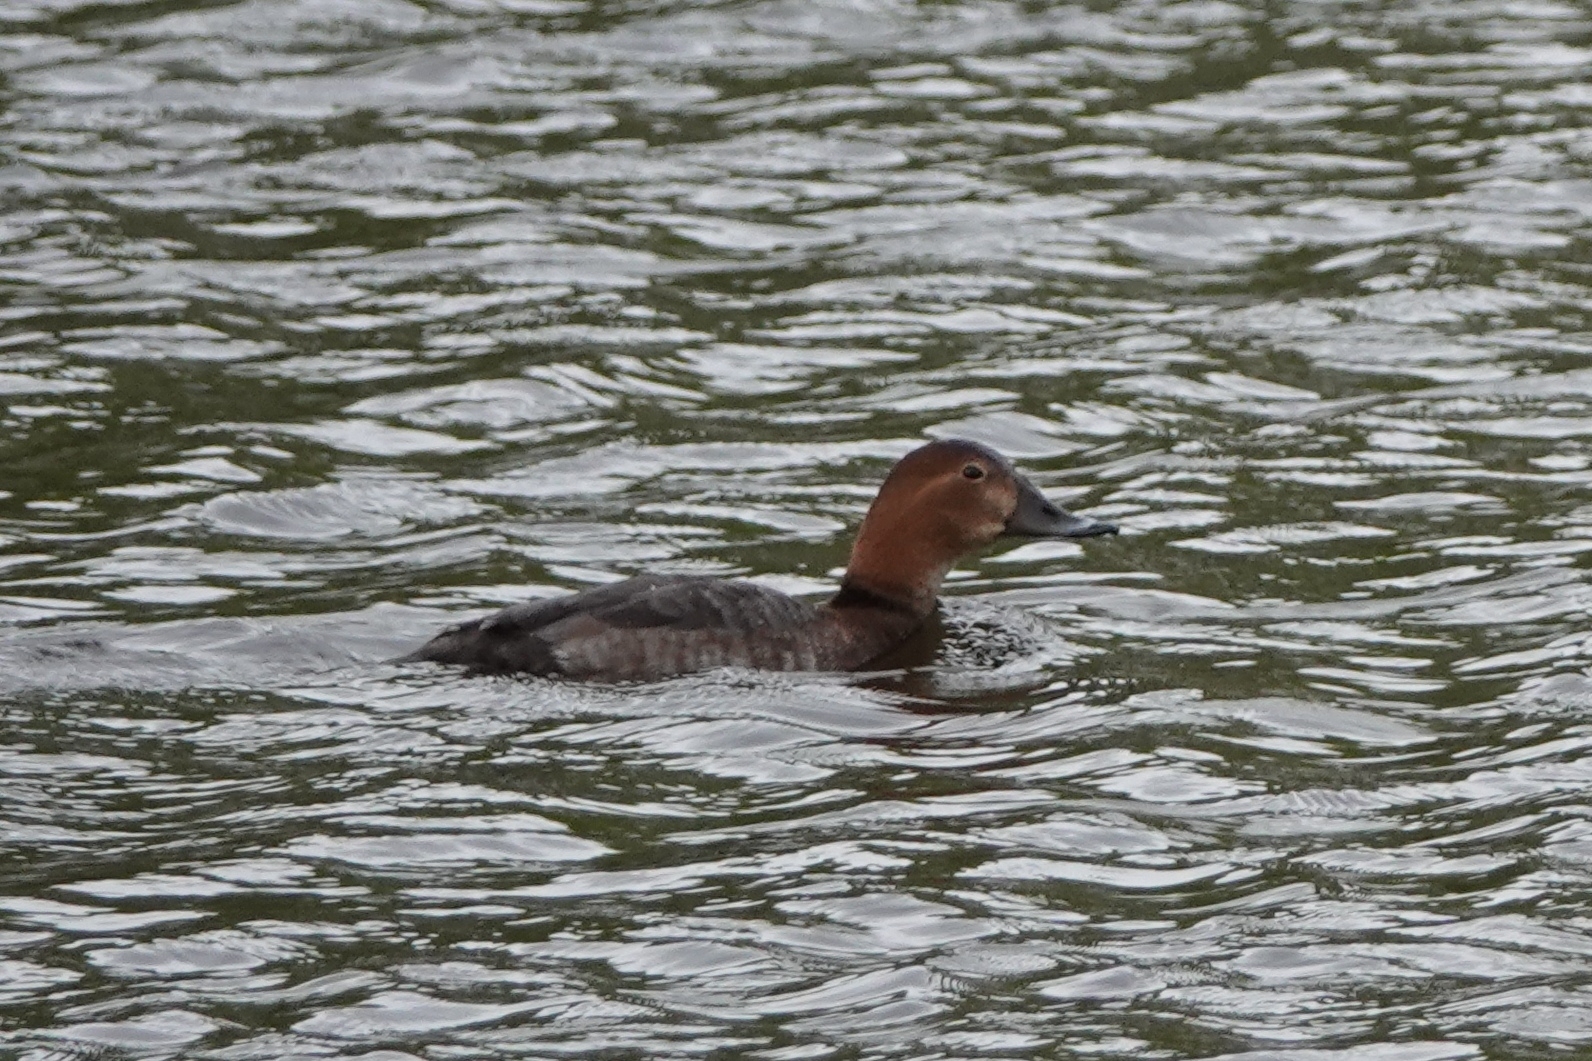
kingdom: Animalia
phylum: Chordata
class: Aves
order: Anseriformes
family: Anatidae
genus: Aythya
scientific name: Aythya ferina
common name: Common pochard
